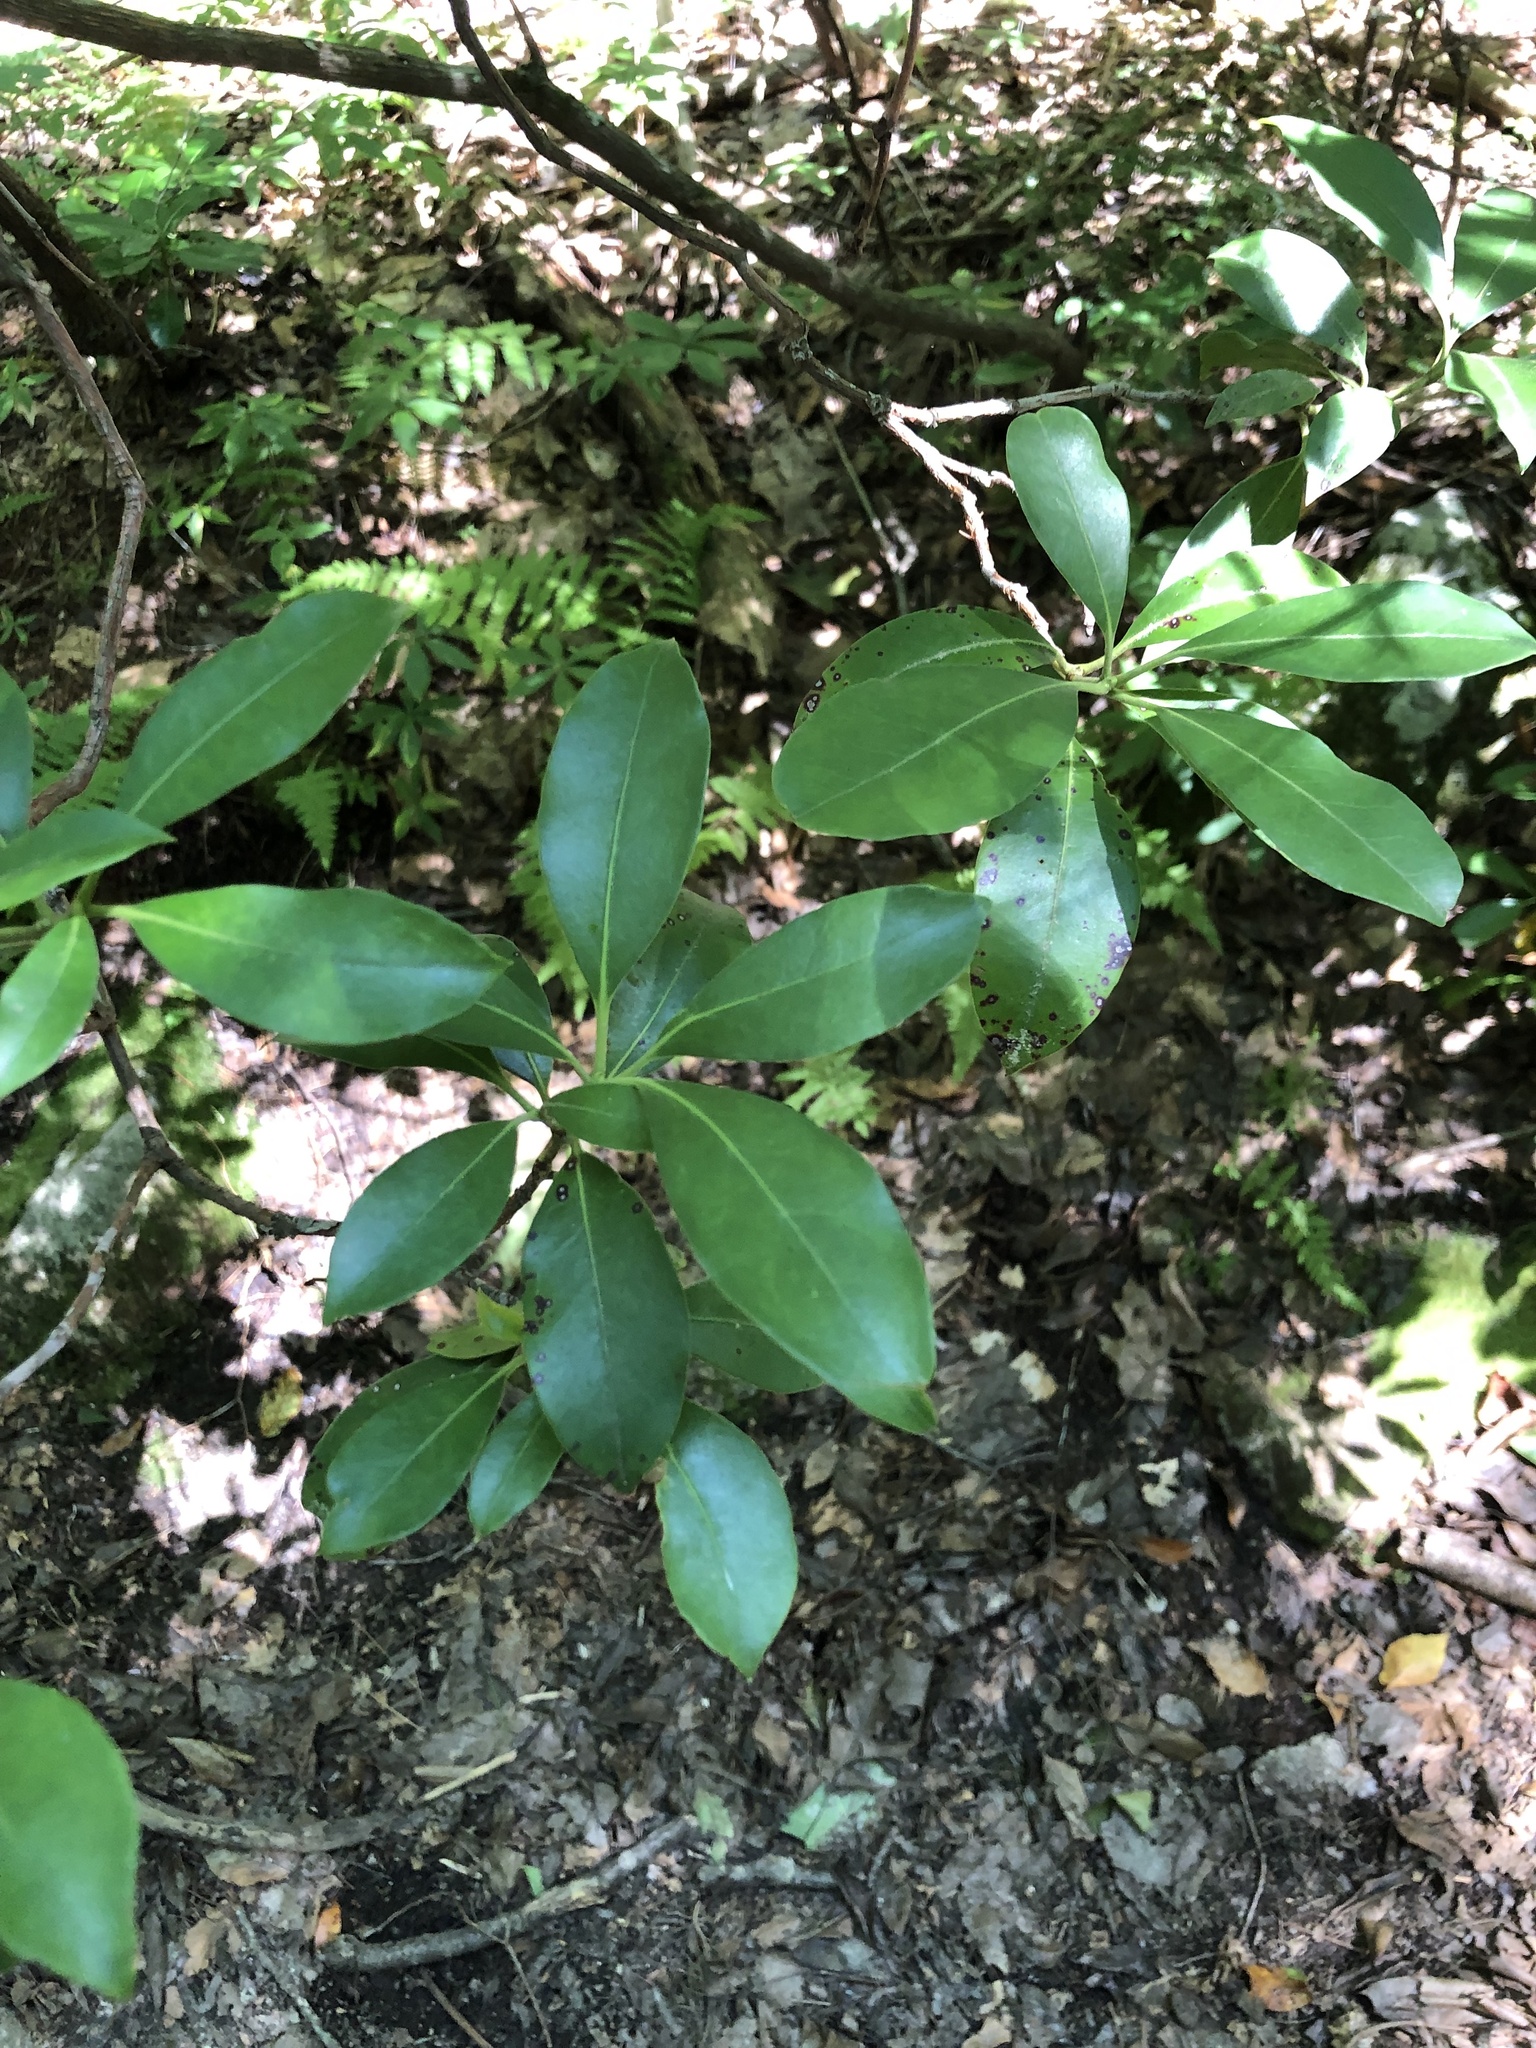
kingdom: Plantae
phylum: Tracheophyta
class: Magnoliopsida
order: Ericales
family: Ericaceae
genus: Kalmia
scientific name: Kalmia latifolia
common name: Mountain-laurel
